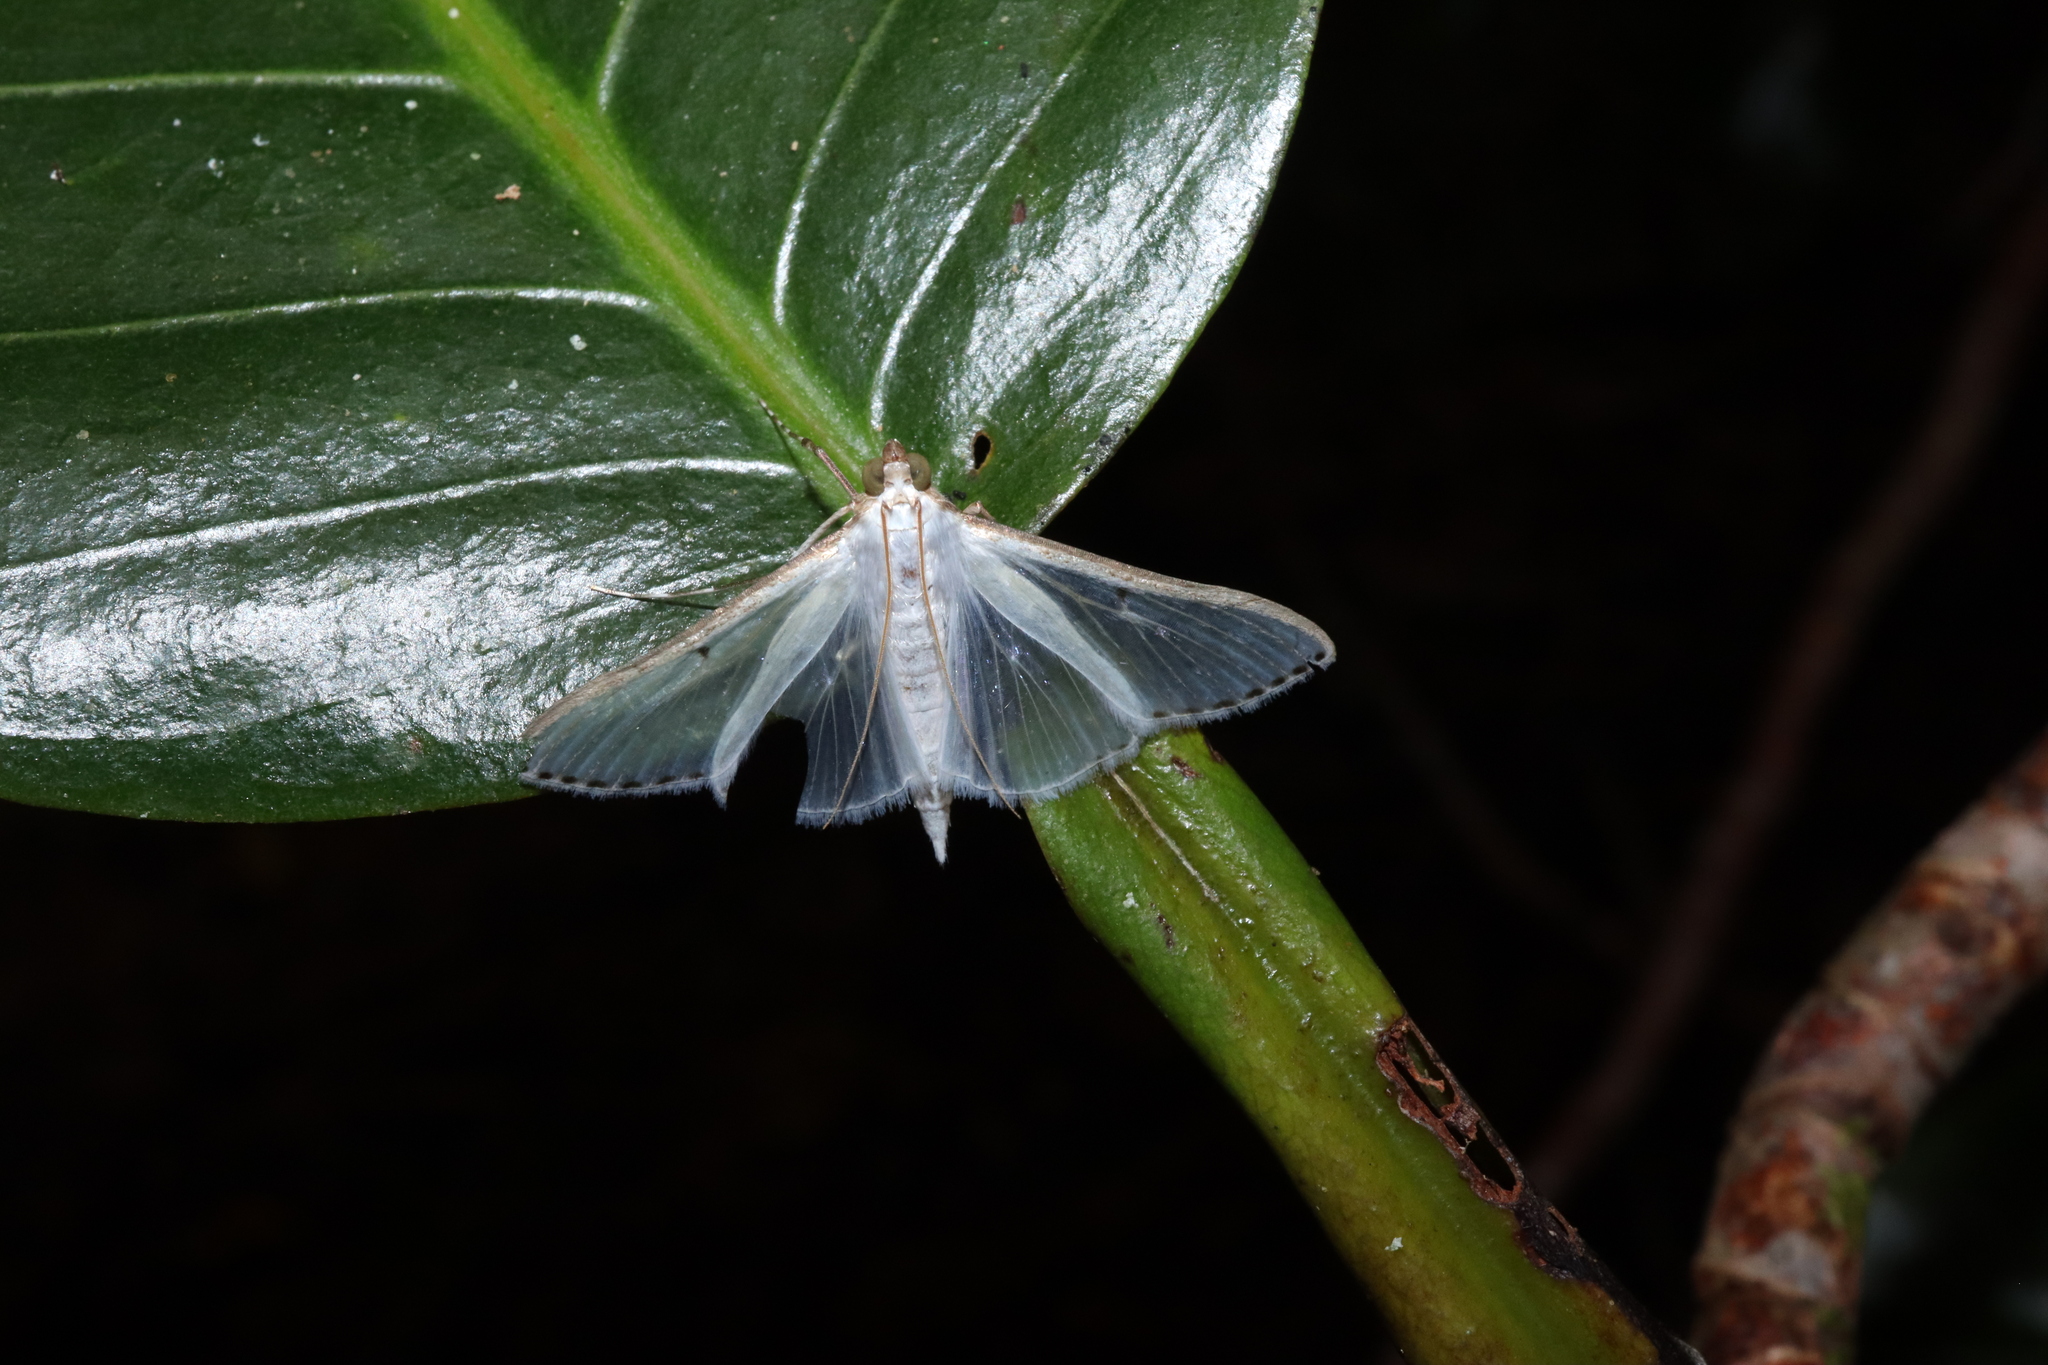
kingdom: Animalia
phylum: Arthropoda
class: Insecta
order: Lepidoptera
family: Crambidae
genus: Cydalima
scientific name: Cydalima diaphanalis
